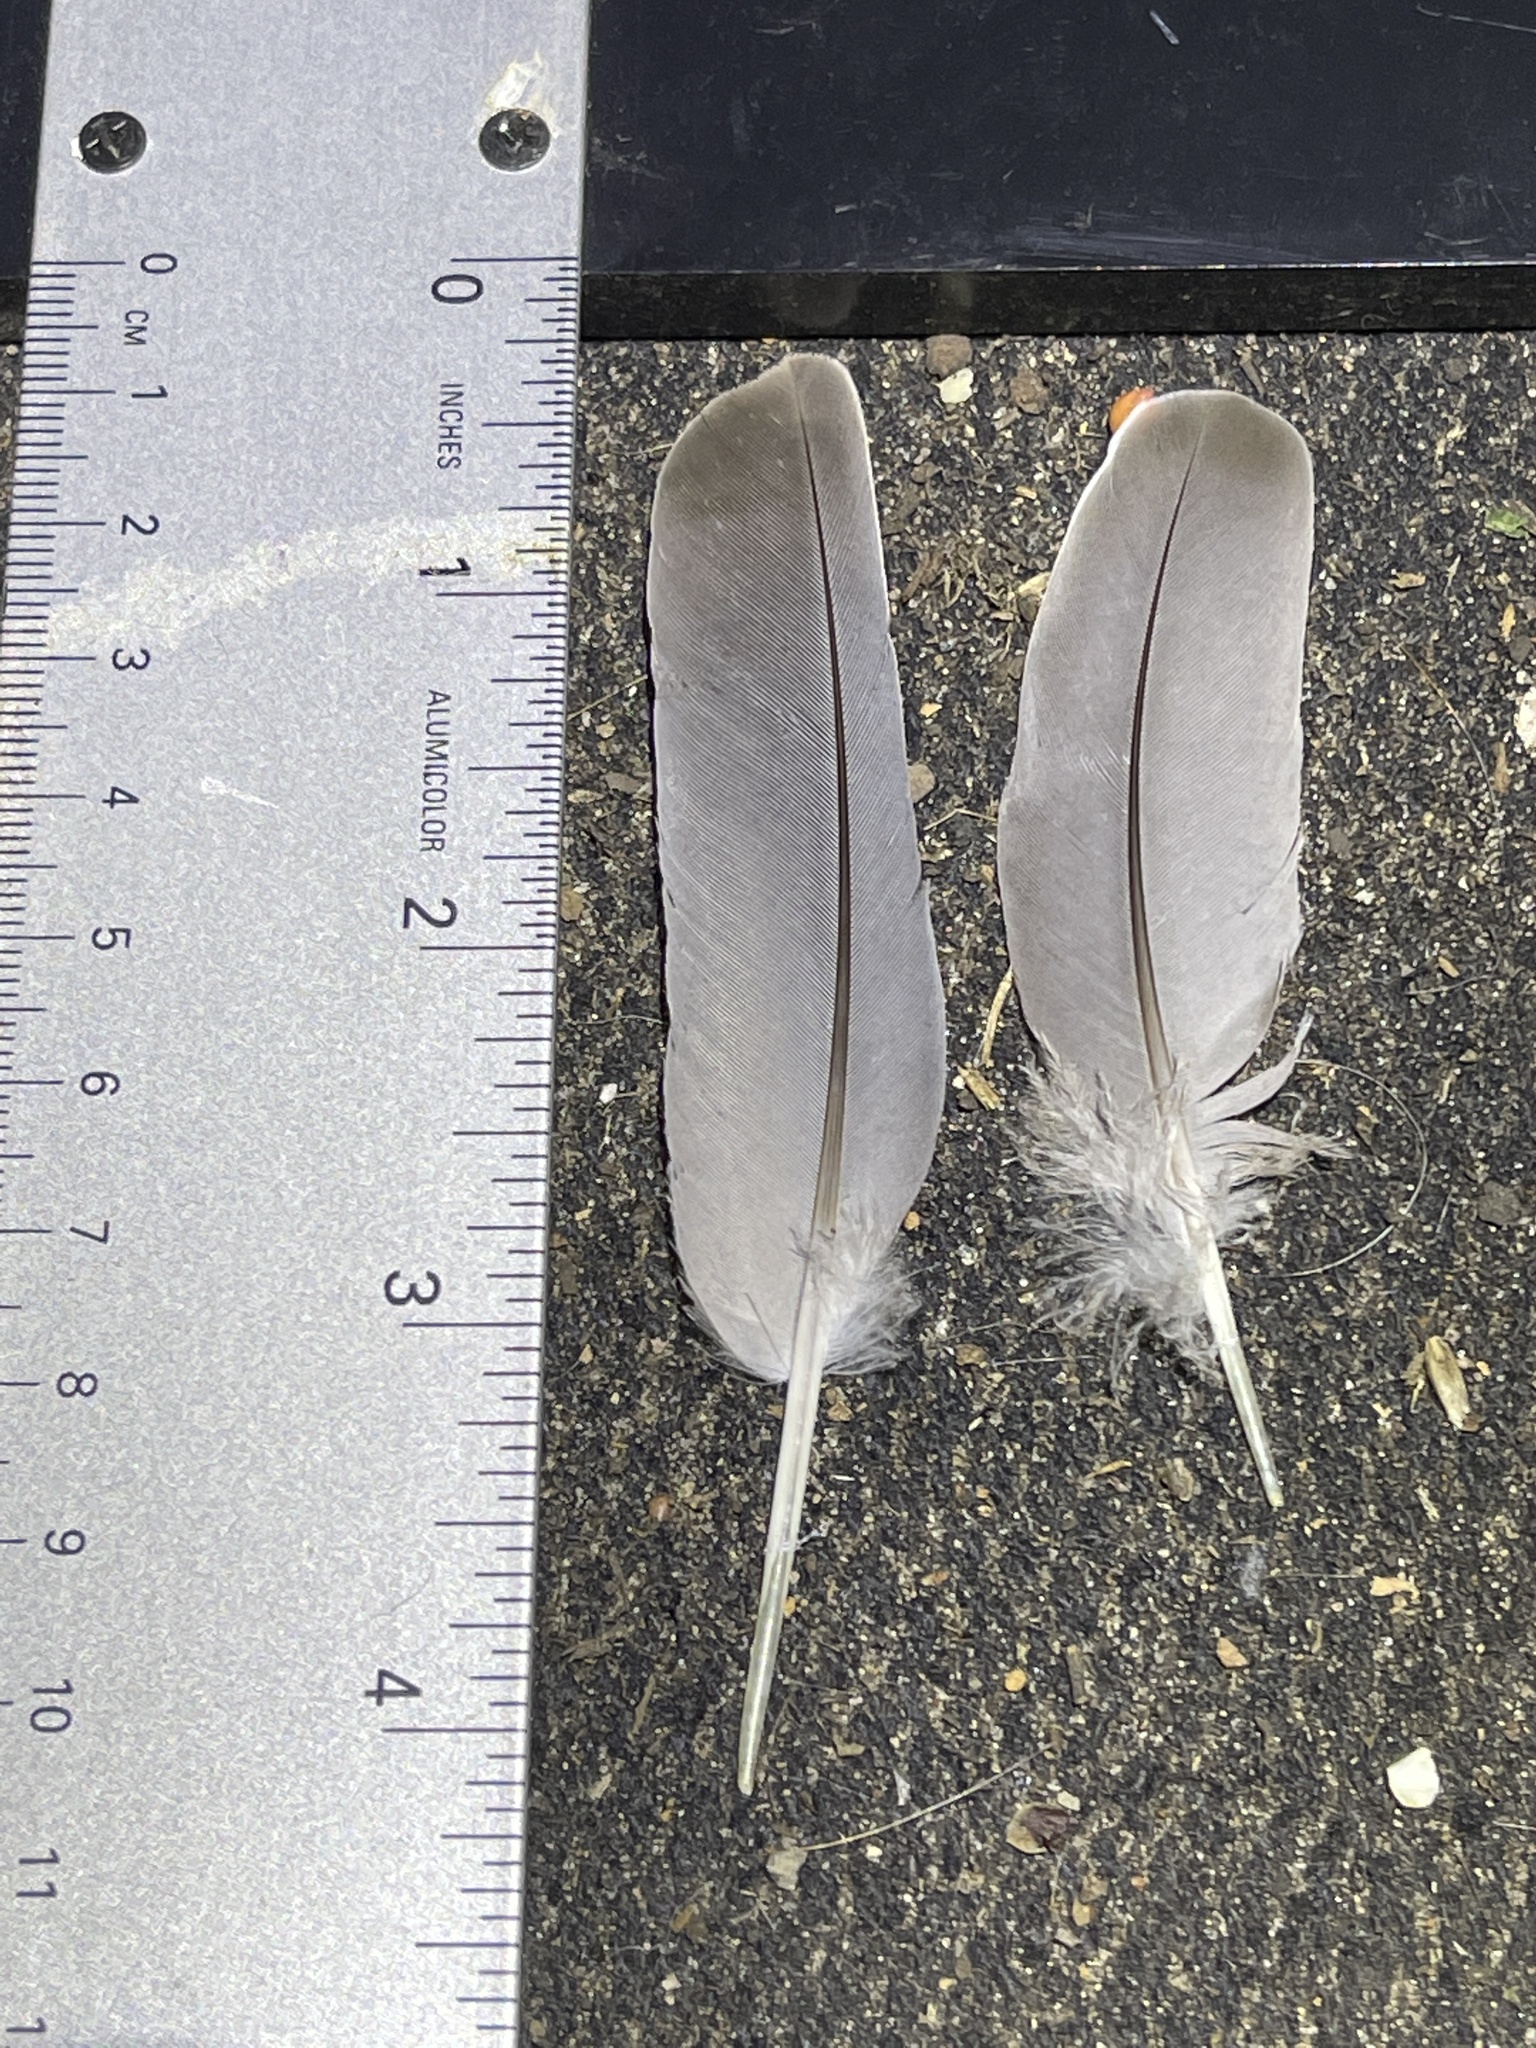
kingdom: Animalia
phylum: Chordata
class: Aves
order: Columbiformes
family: Columbidae
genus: Zenaida
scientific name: Zenaida macroura
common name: Mourning dove
